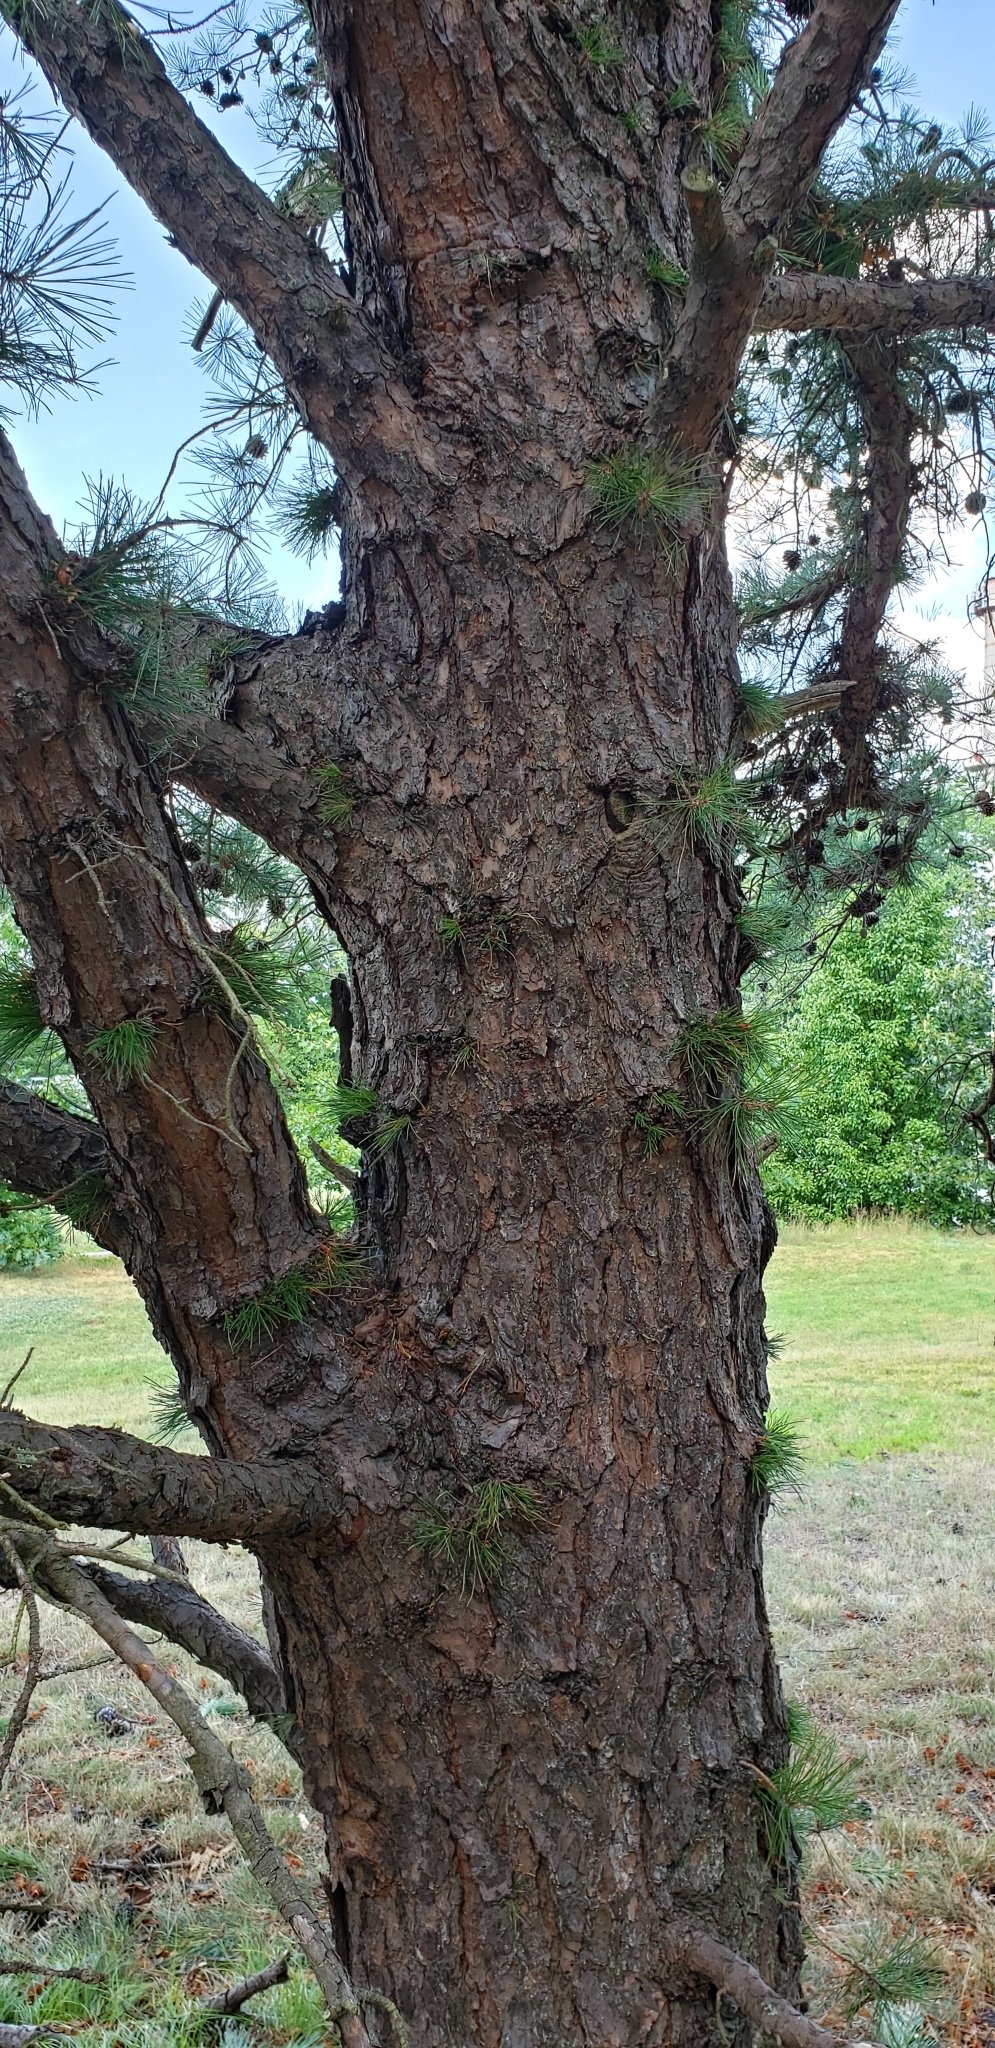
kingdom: Plantae
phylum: Tracheophyta
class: Pinopsida
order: Pinales
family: Pinaceae
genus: Pinus
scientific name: Pinus rigida
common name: Pitch pine
